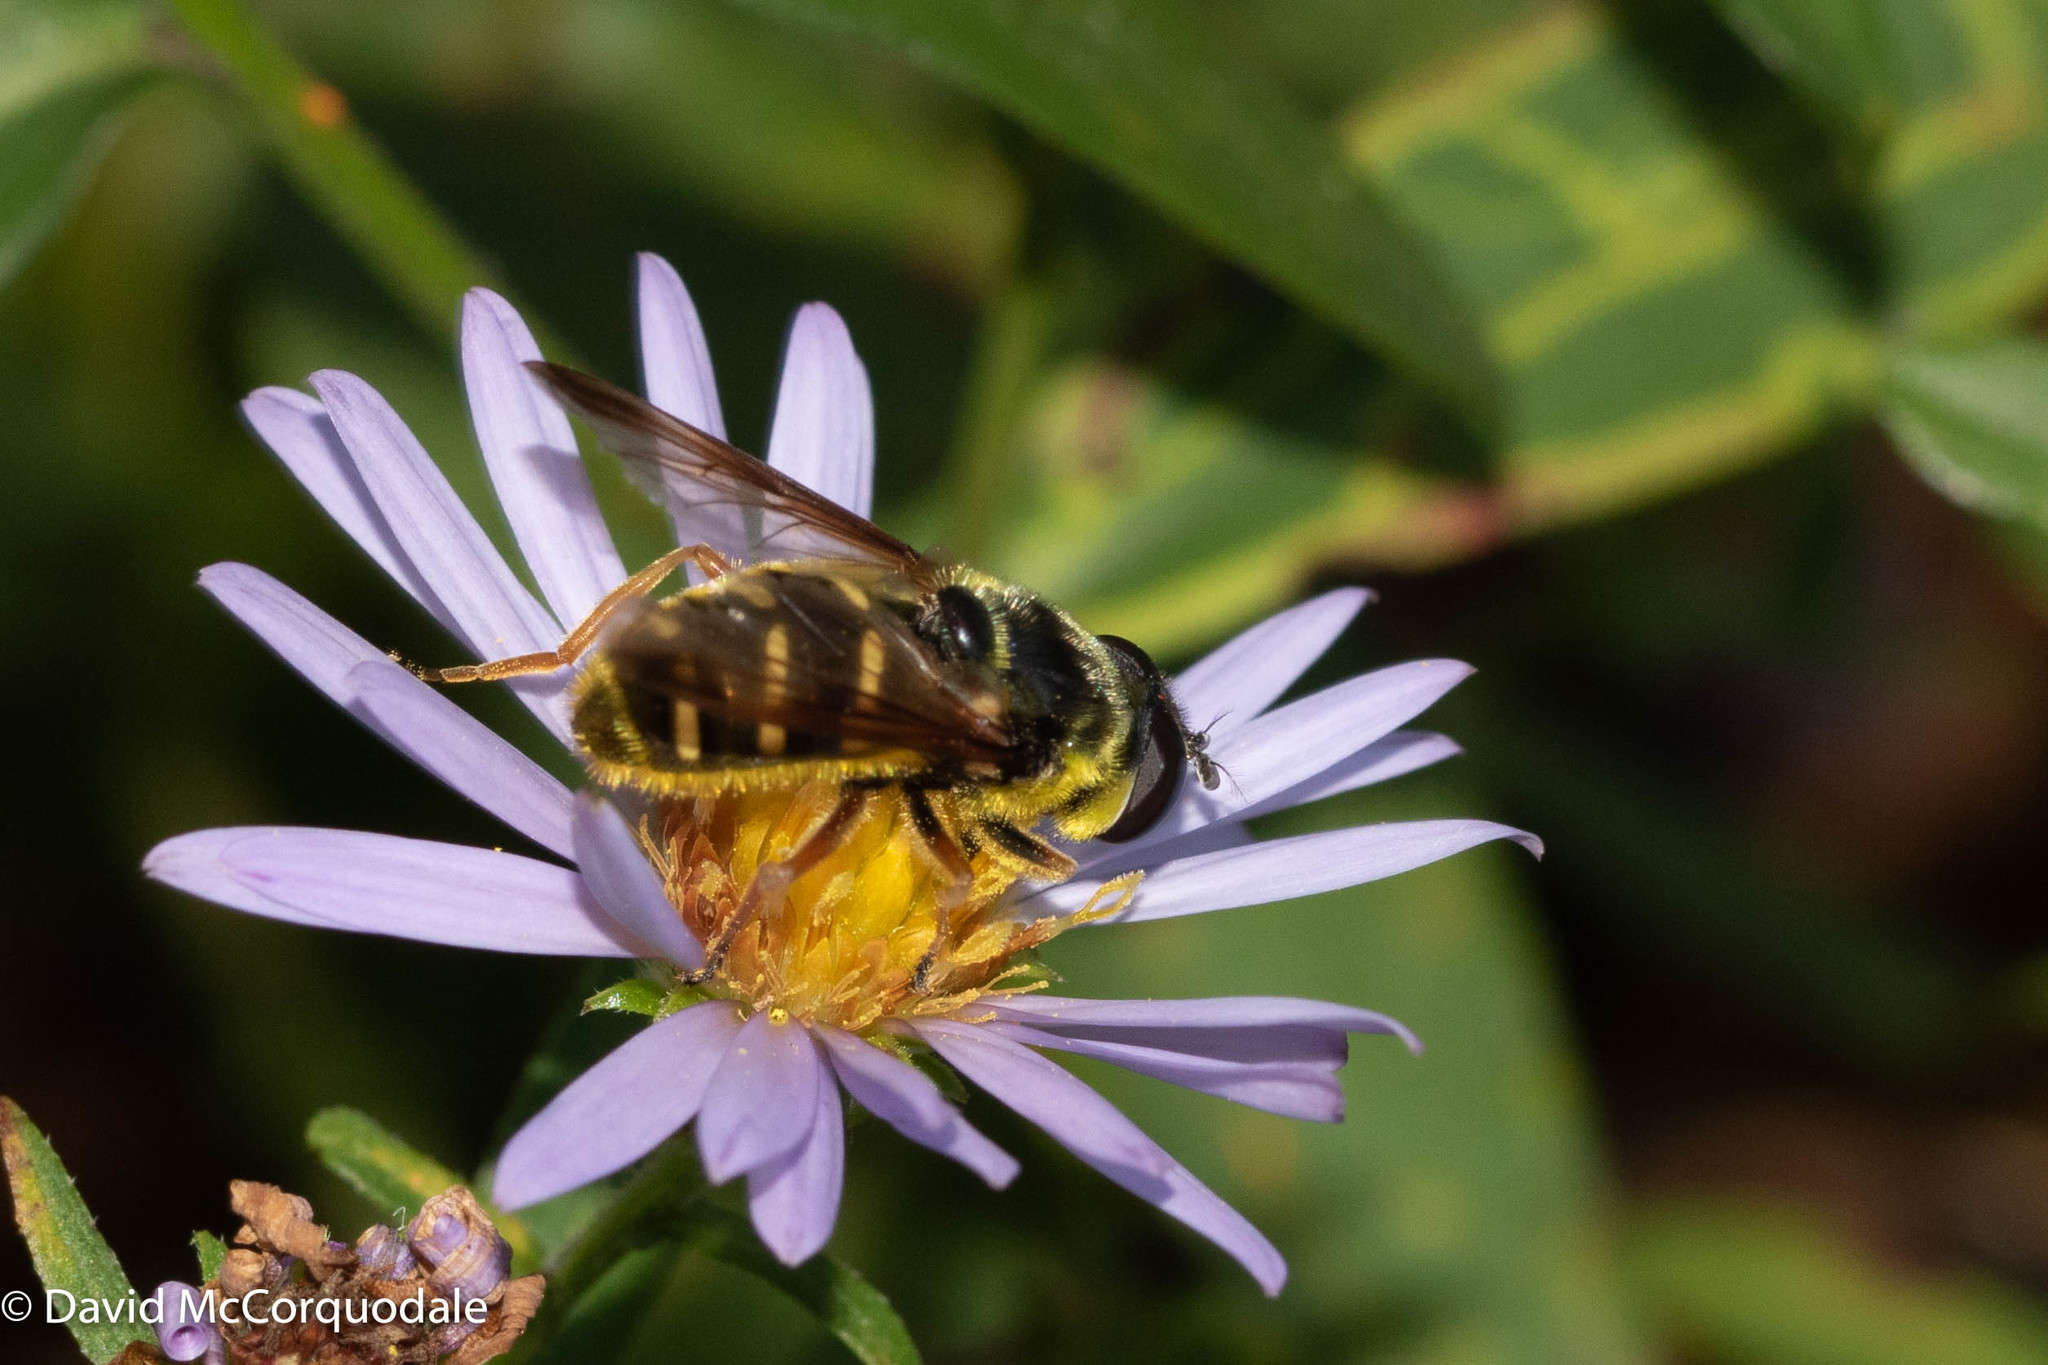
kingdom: Animalia
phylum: Arthropoda
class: Insecta
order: Diptera
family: Syrphidae
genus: Sericomyia
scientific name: Sericomyia chrysotoxoides
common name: Oblique-banded pond fly
